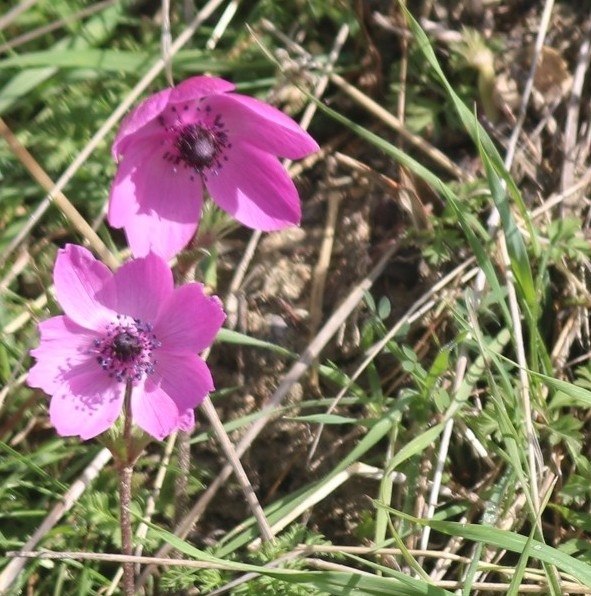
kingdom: Plantae
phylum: Tracheophyta
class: Magnoliopsida
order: Ranunculales
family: Ranunculaceae
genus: Anemone
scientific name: Anemone coronaria
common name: Poppy anemone
